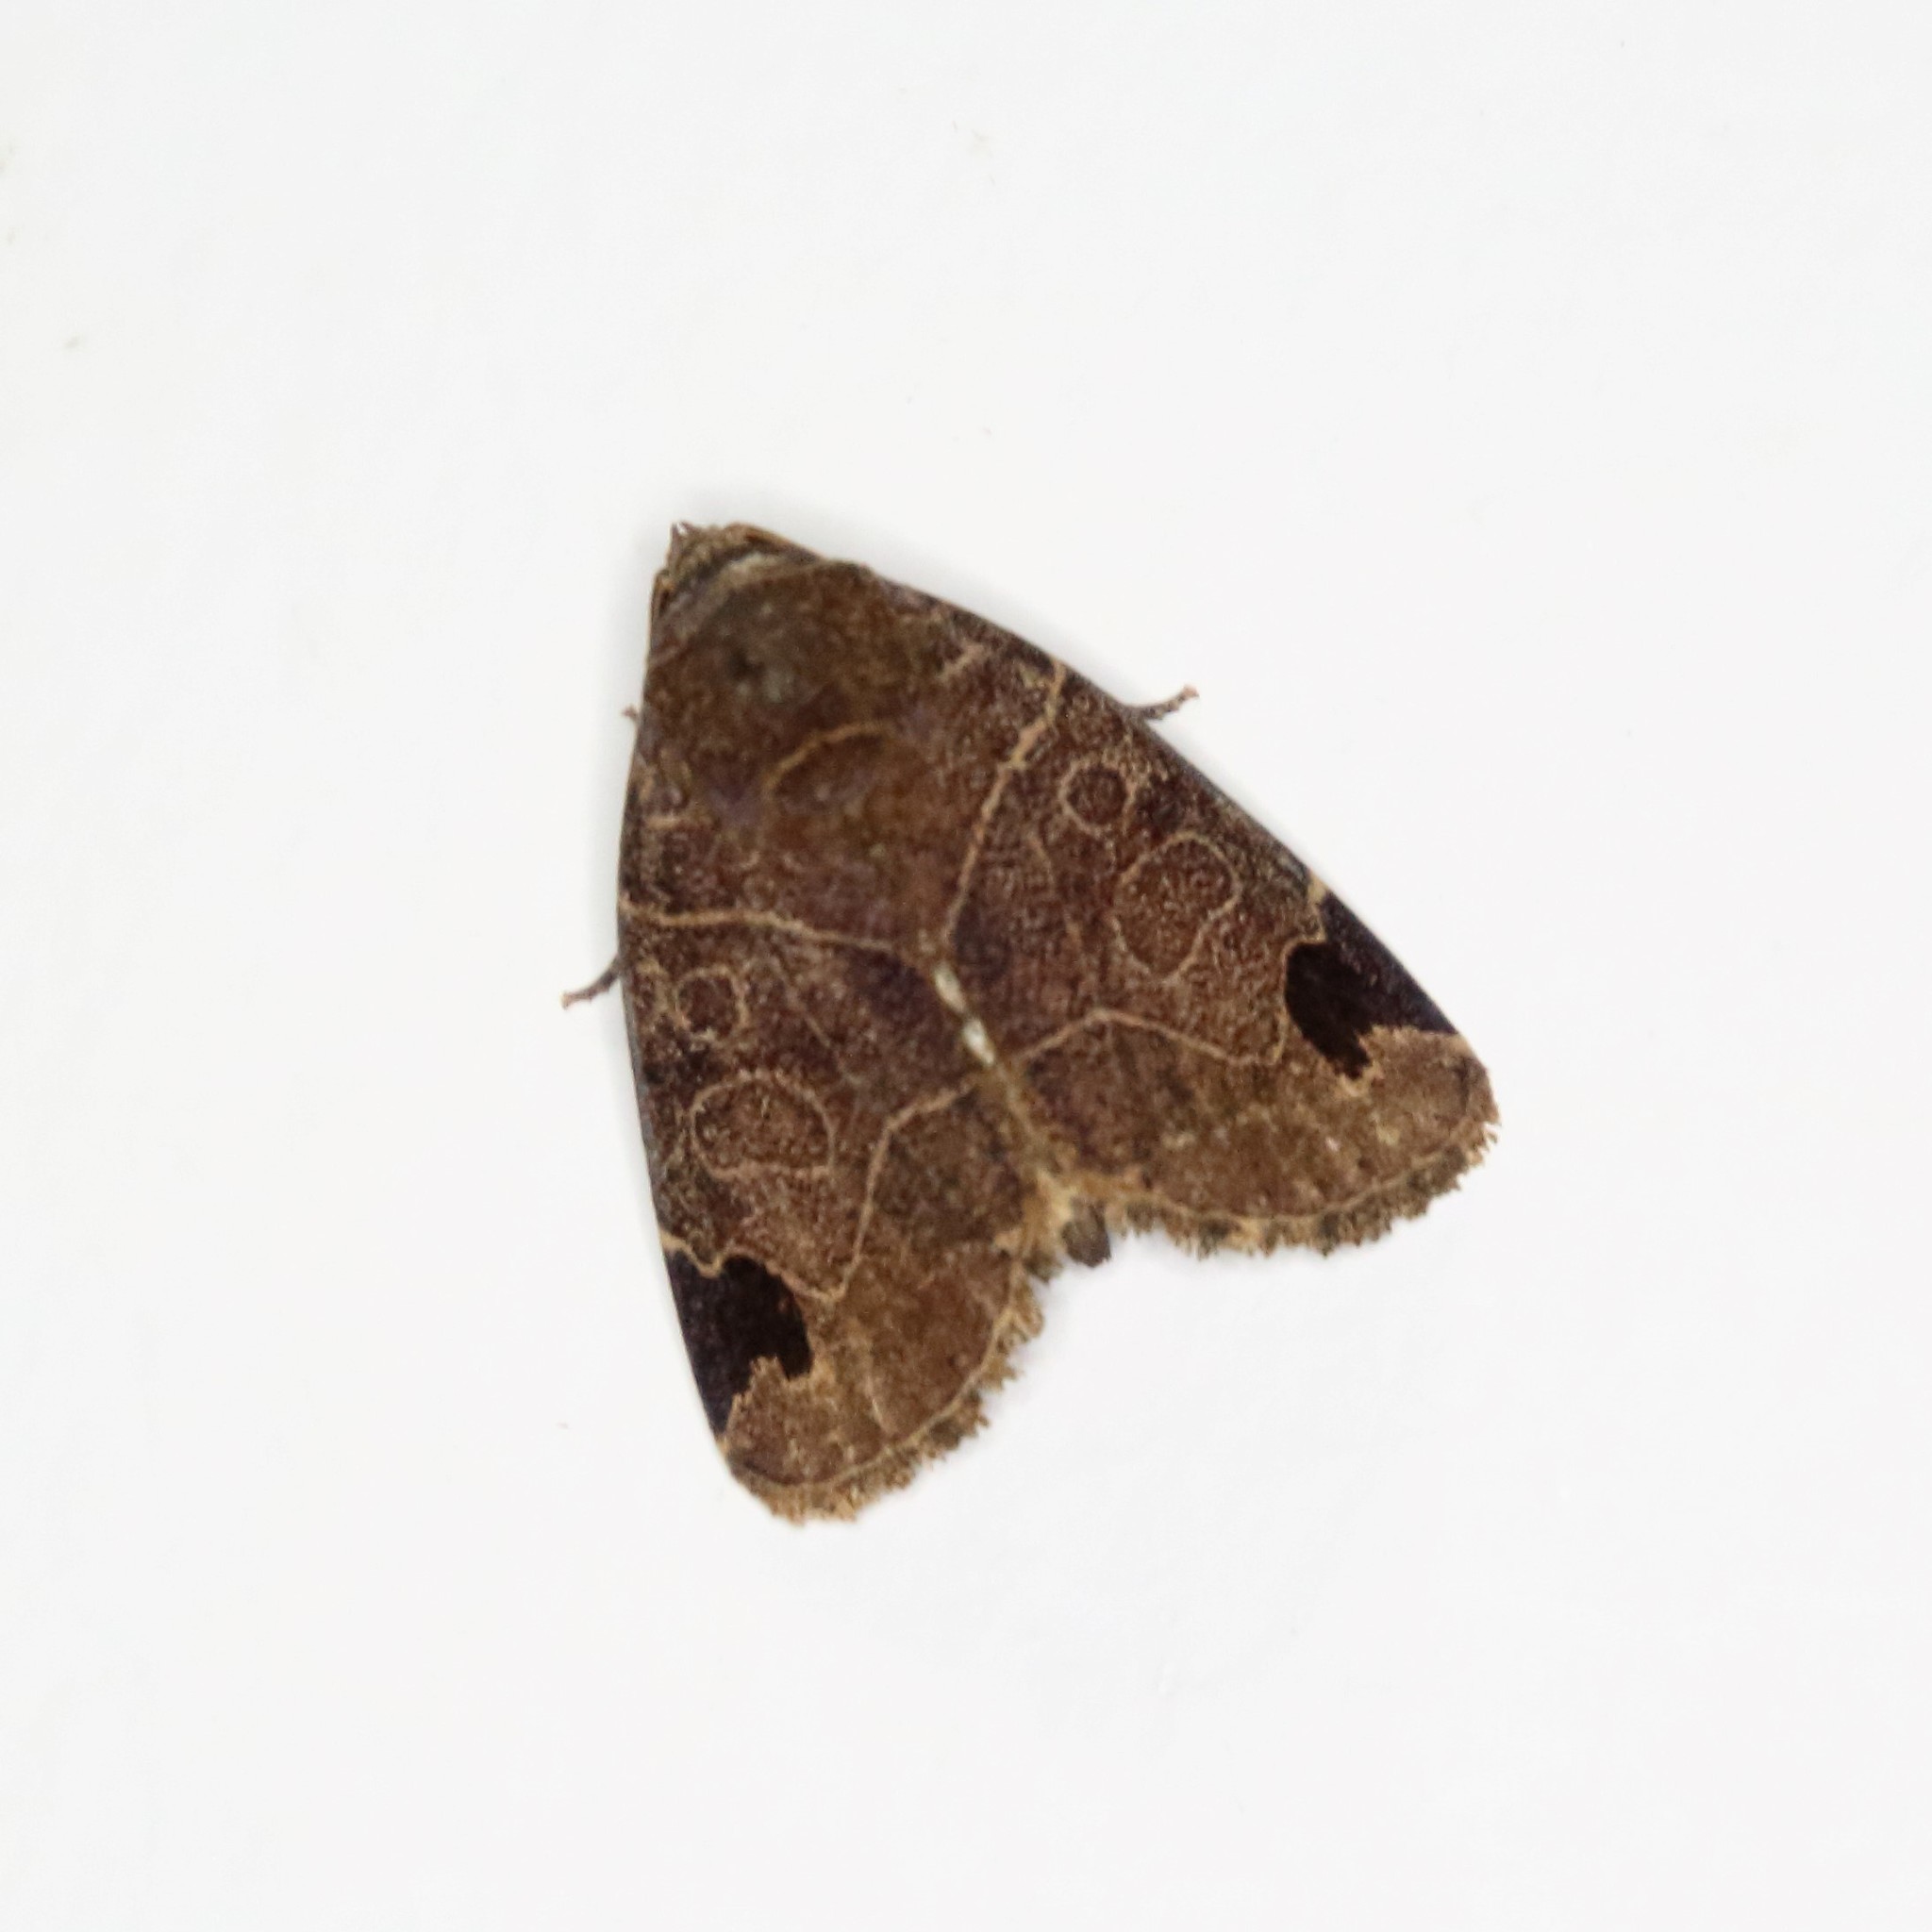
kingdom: Animalia
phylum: Arthropoda
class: Insecta
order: Lepidoptera
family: Noctuidae
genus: Imosca
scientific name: Imosca coreana
